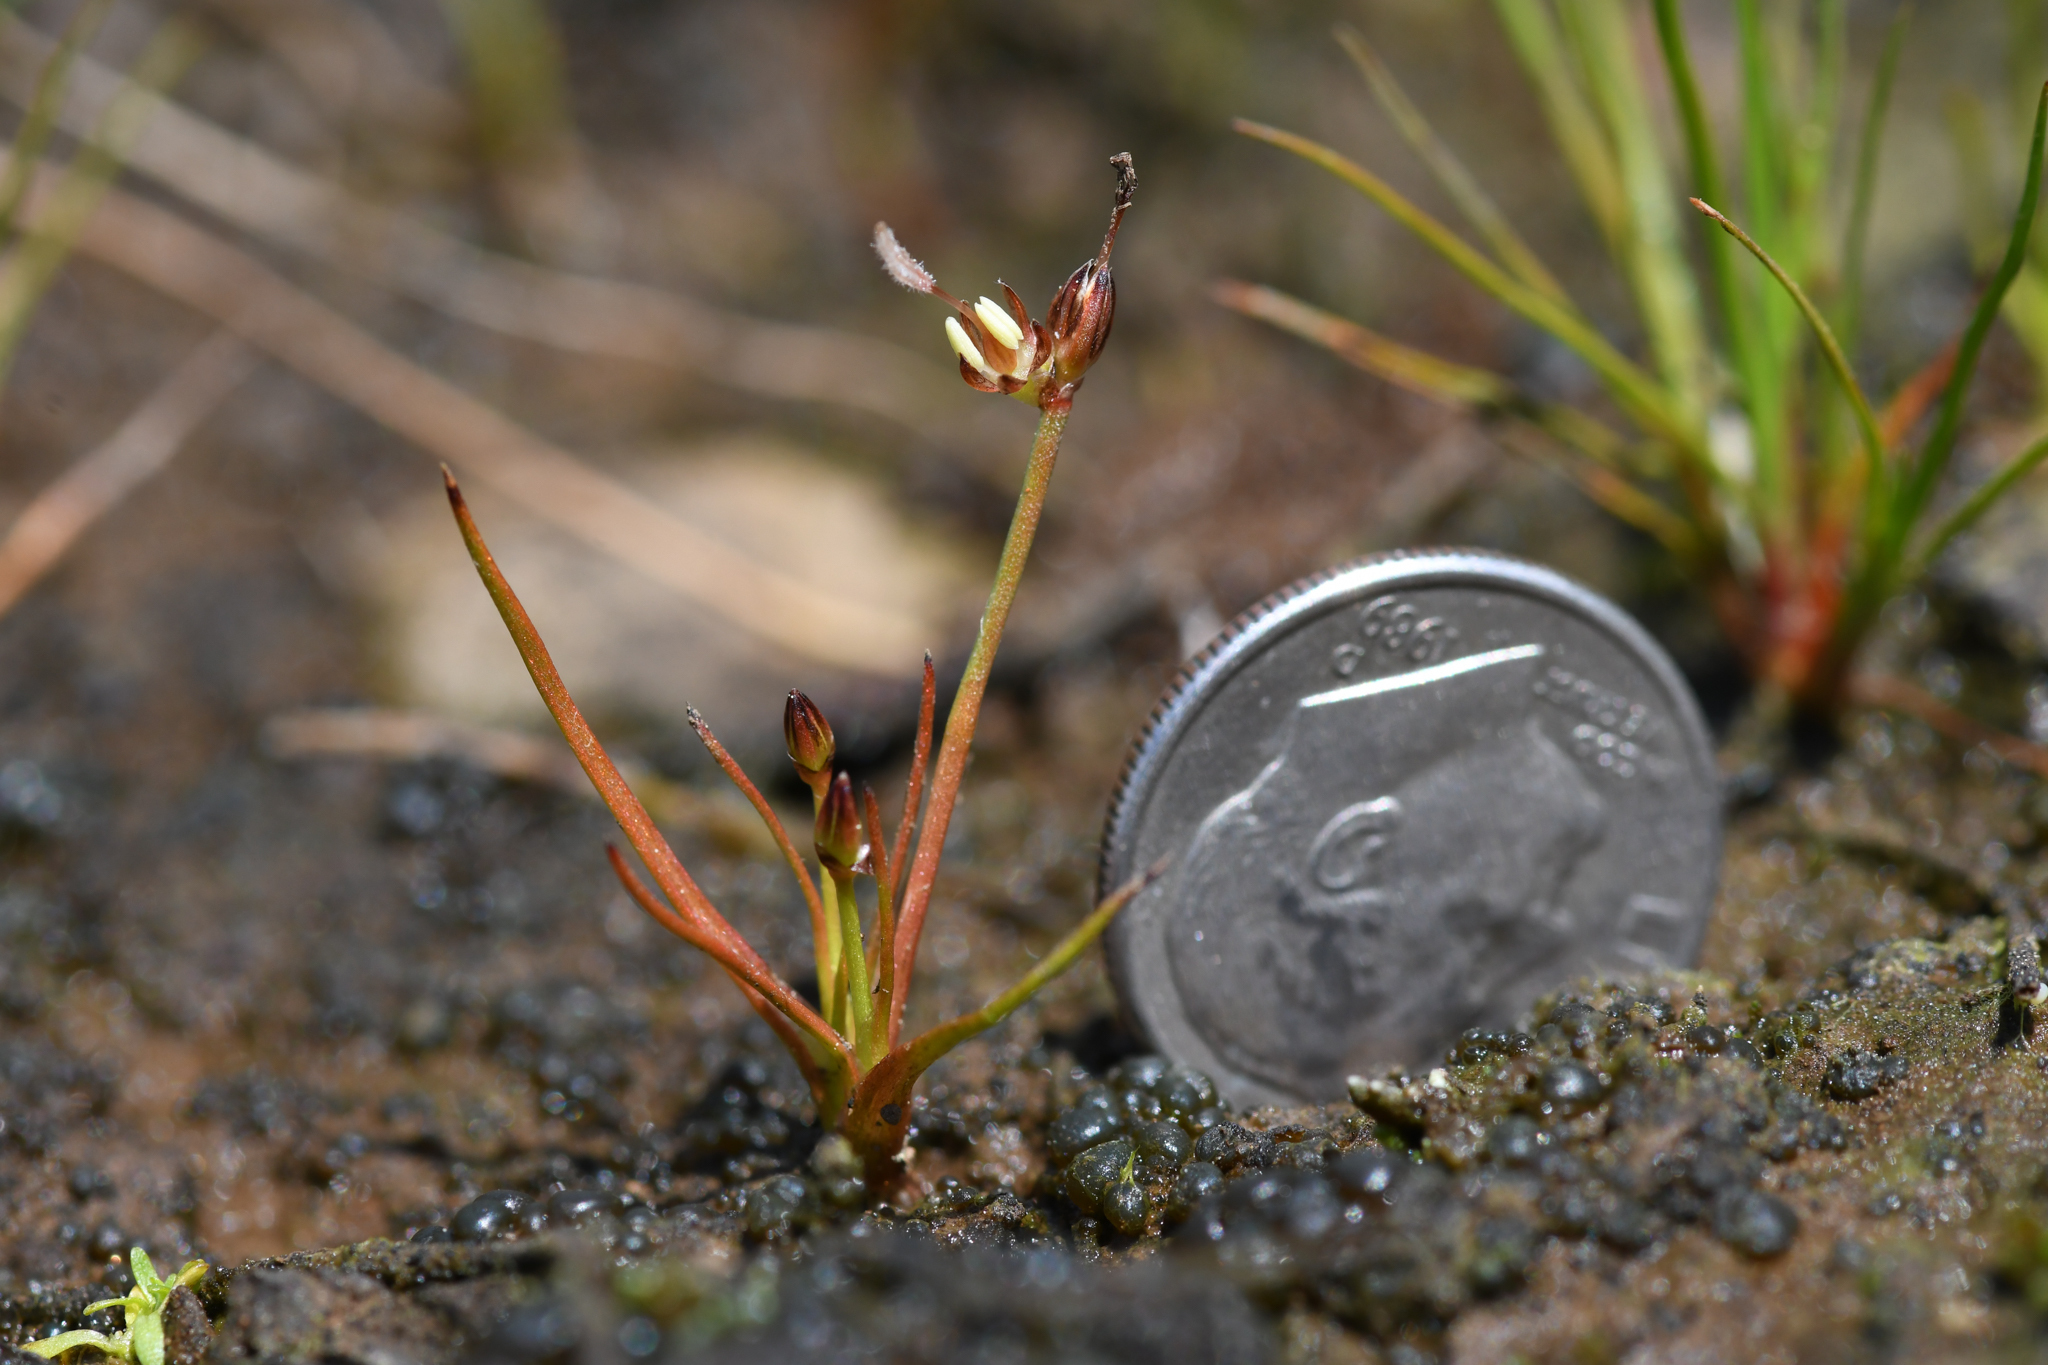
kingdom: Plantae
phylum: Tracheophyta
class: Liliopsida
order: Poales
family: Juncaceae
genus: Juncus
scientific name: Juncus leiospermus
